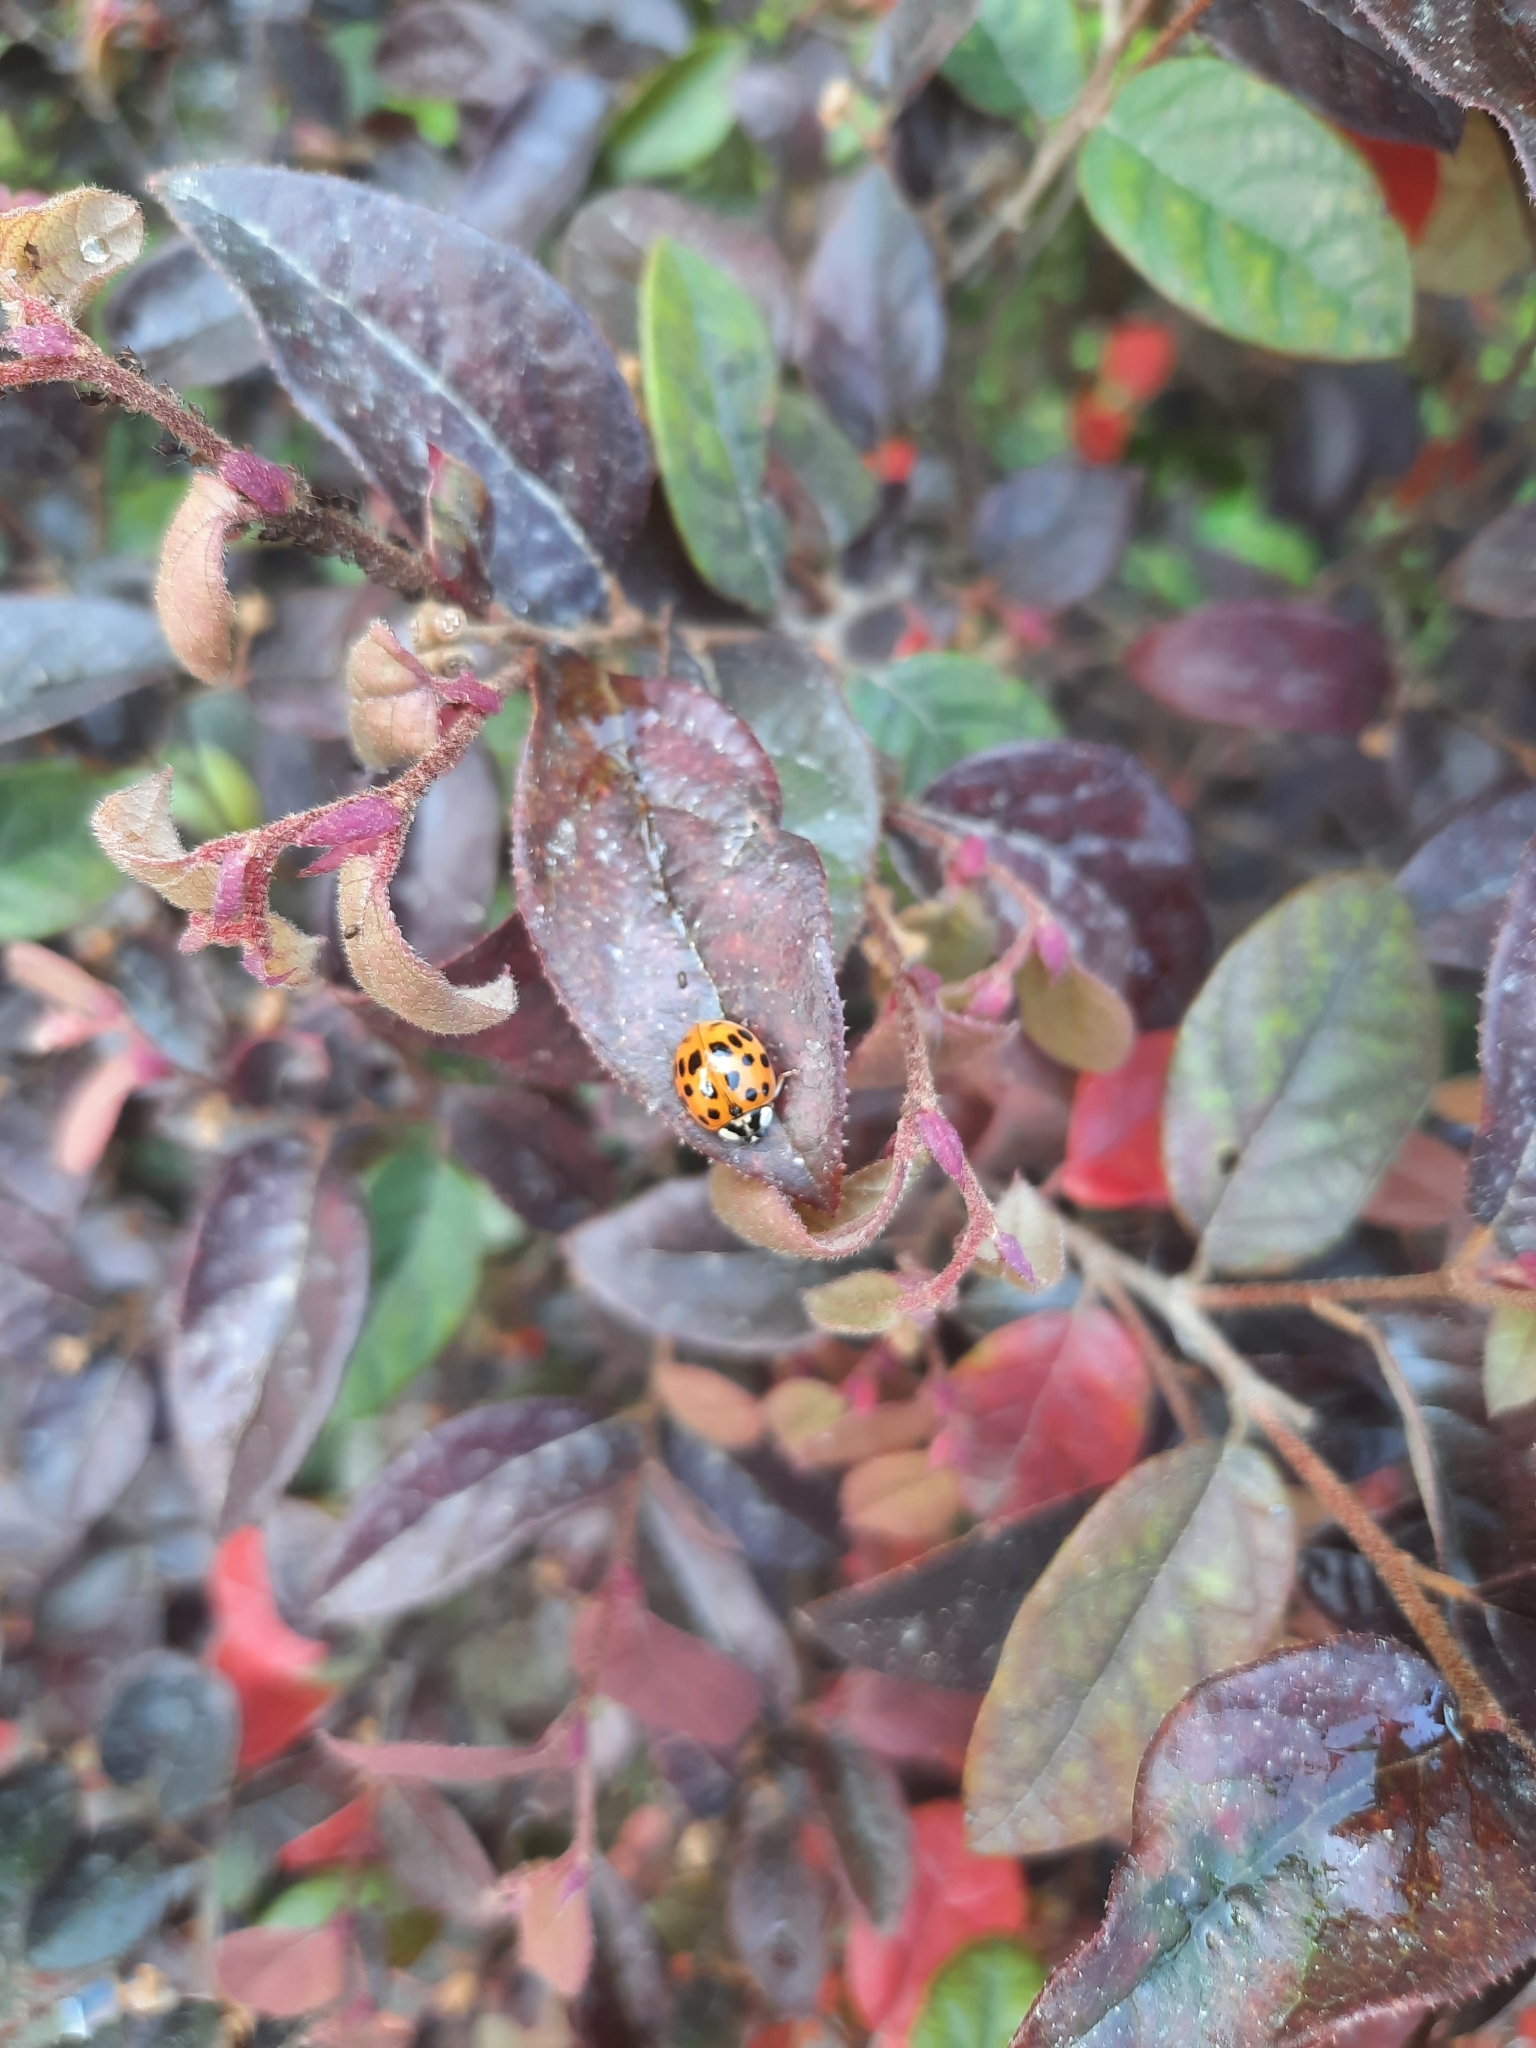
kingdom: Animalia
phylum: Arthropoda
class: Insecta
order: Coleoptera
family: Coccinellidae
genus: Harmonia
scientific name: Harmonia axyridis
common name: Harlequin ladybird
